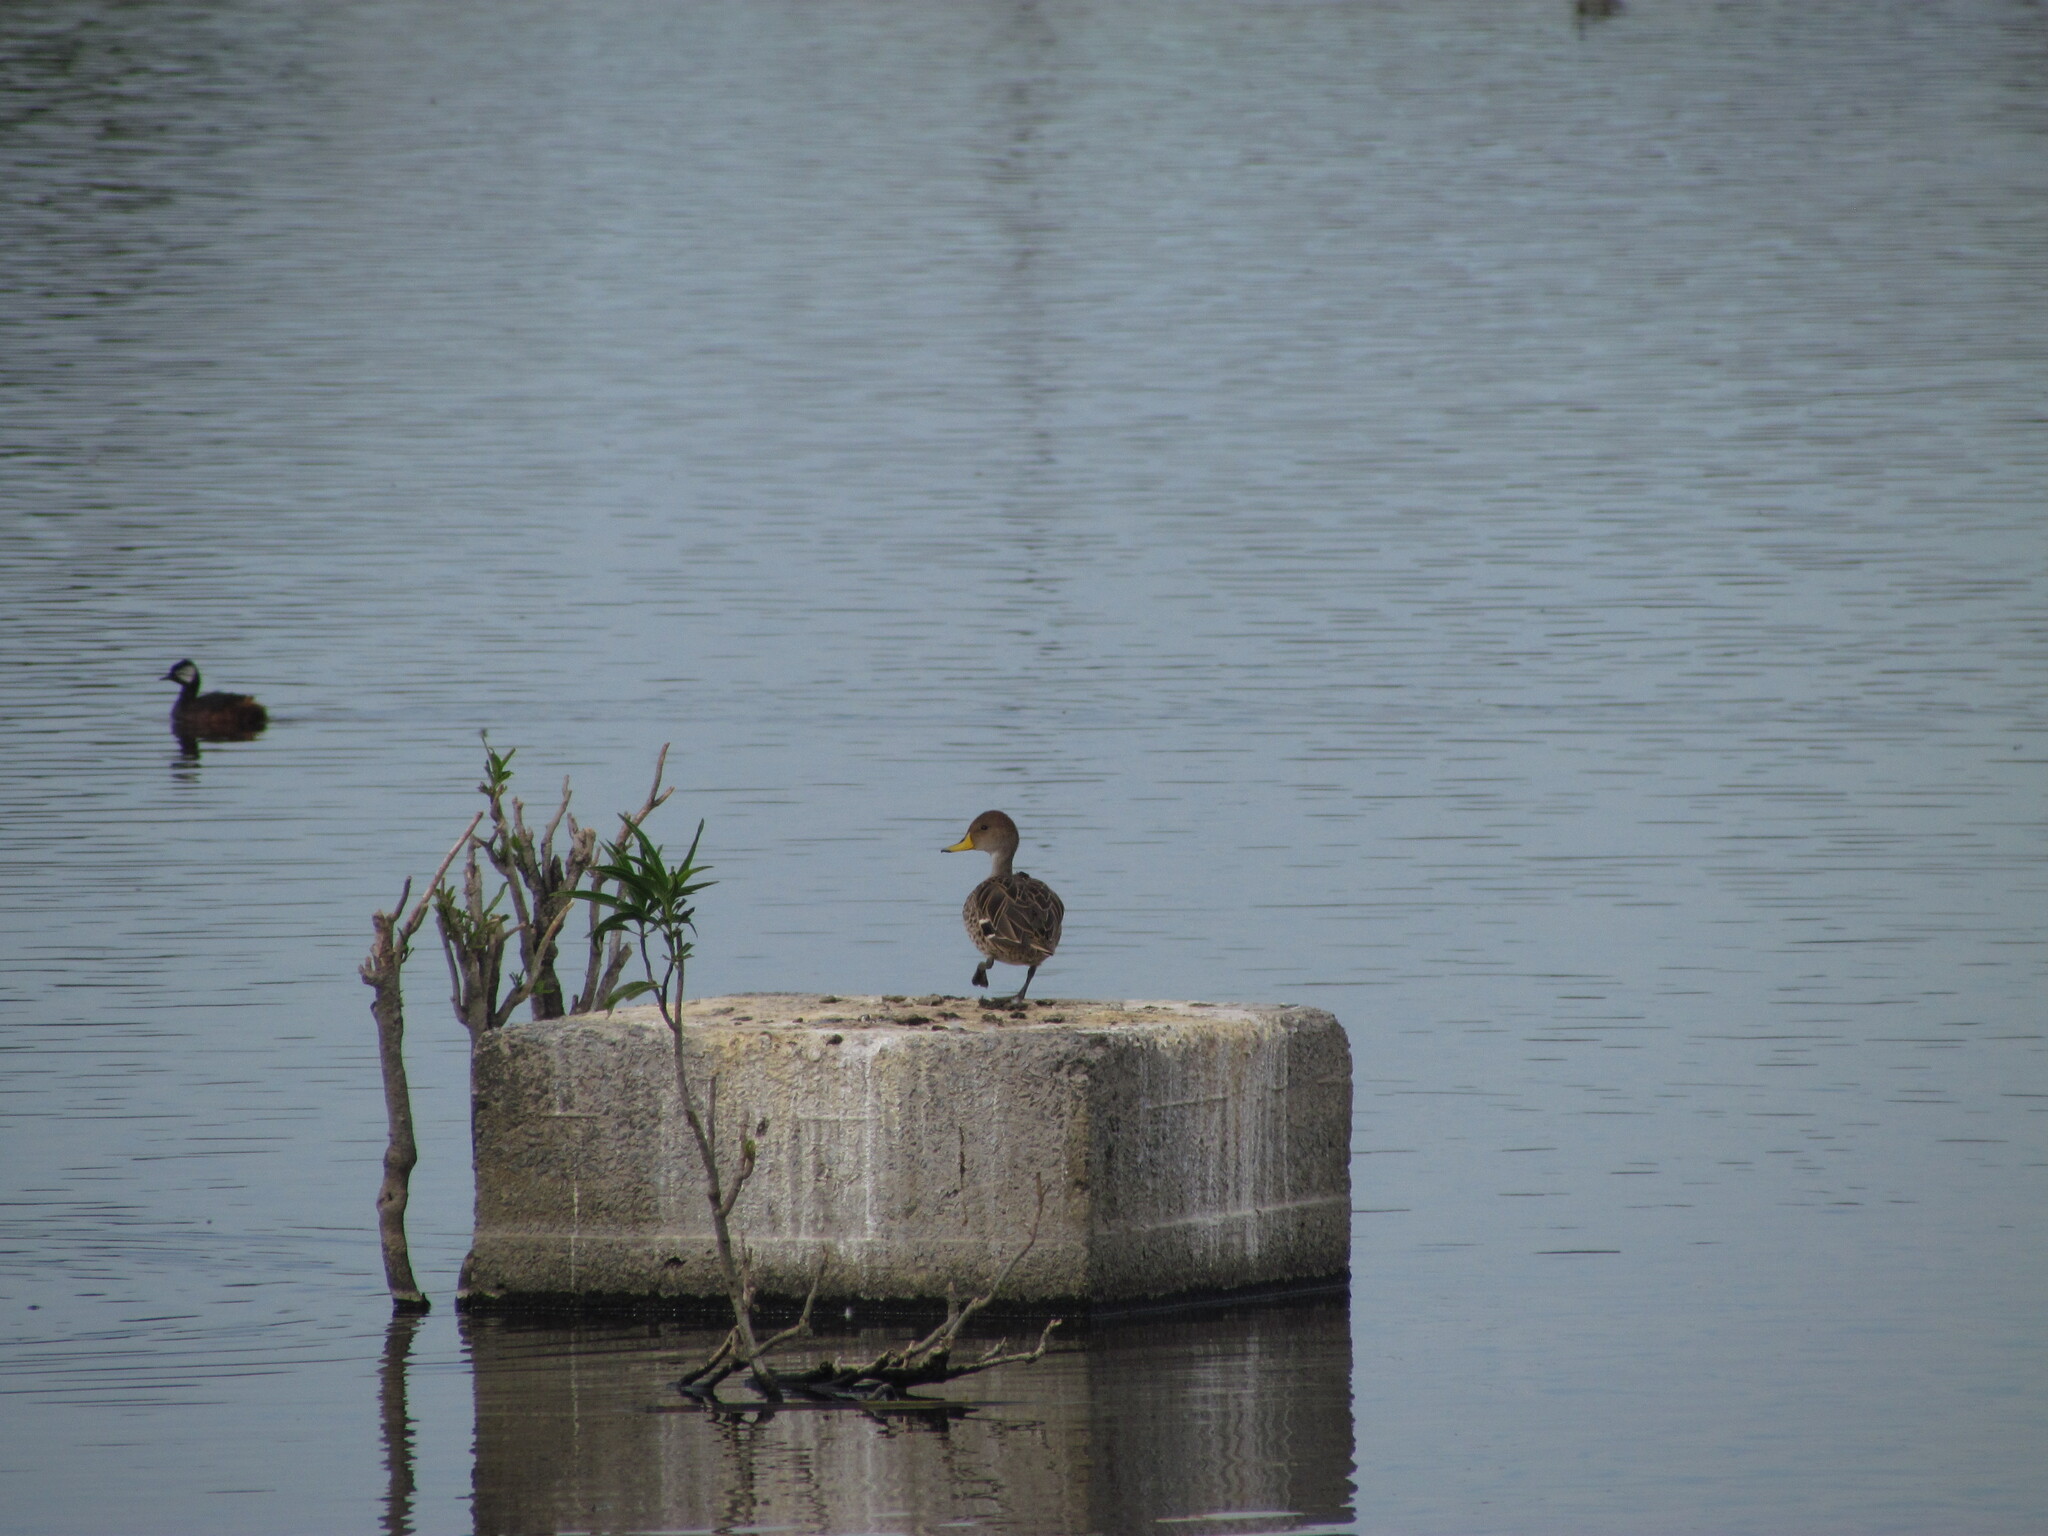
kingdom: Animalia
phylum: Chordata
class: Aves
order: Anseriformes
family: Anatidae
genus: Anas
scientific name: Anas georgica
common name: Yellow-billed pintail
